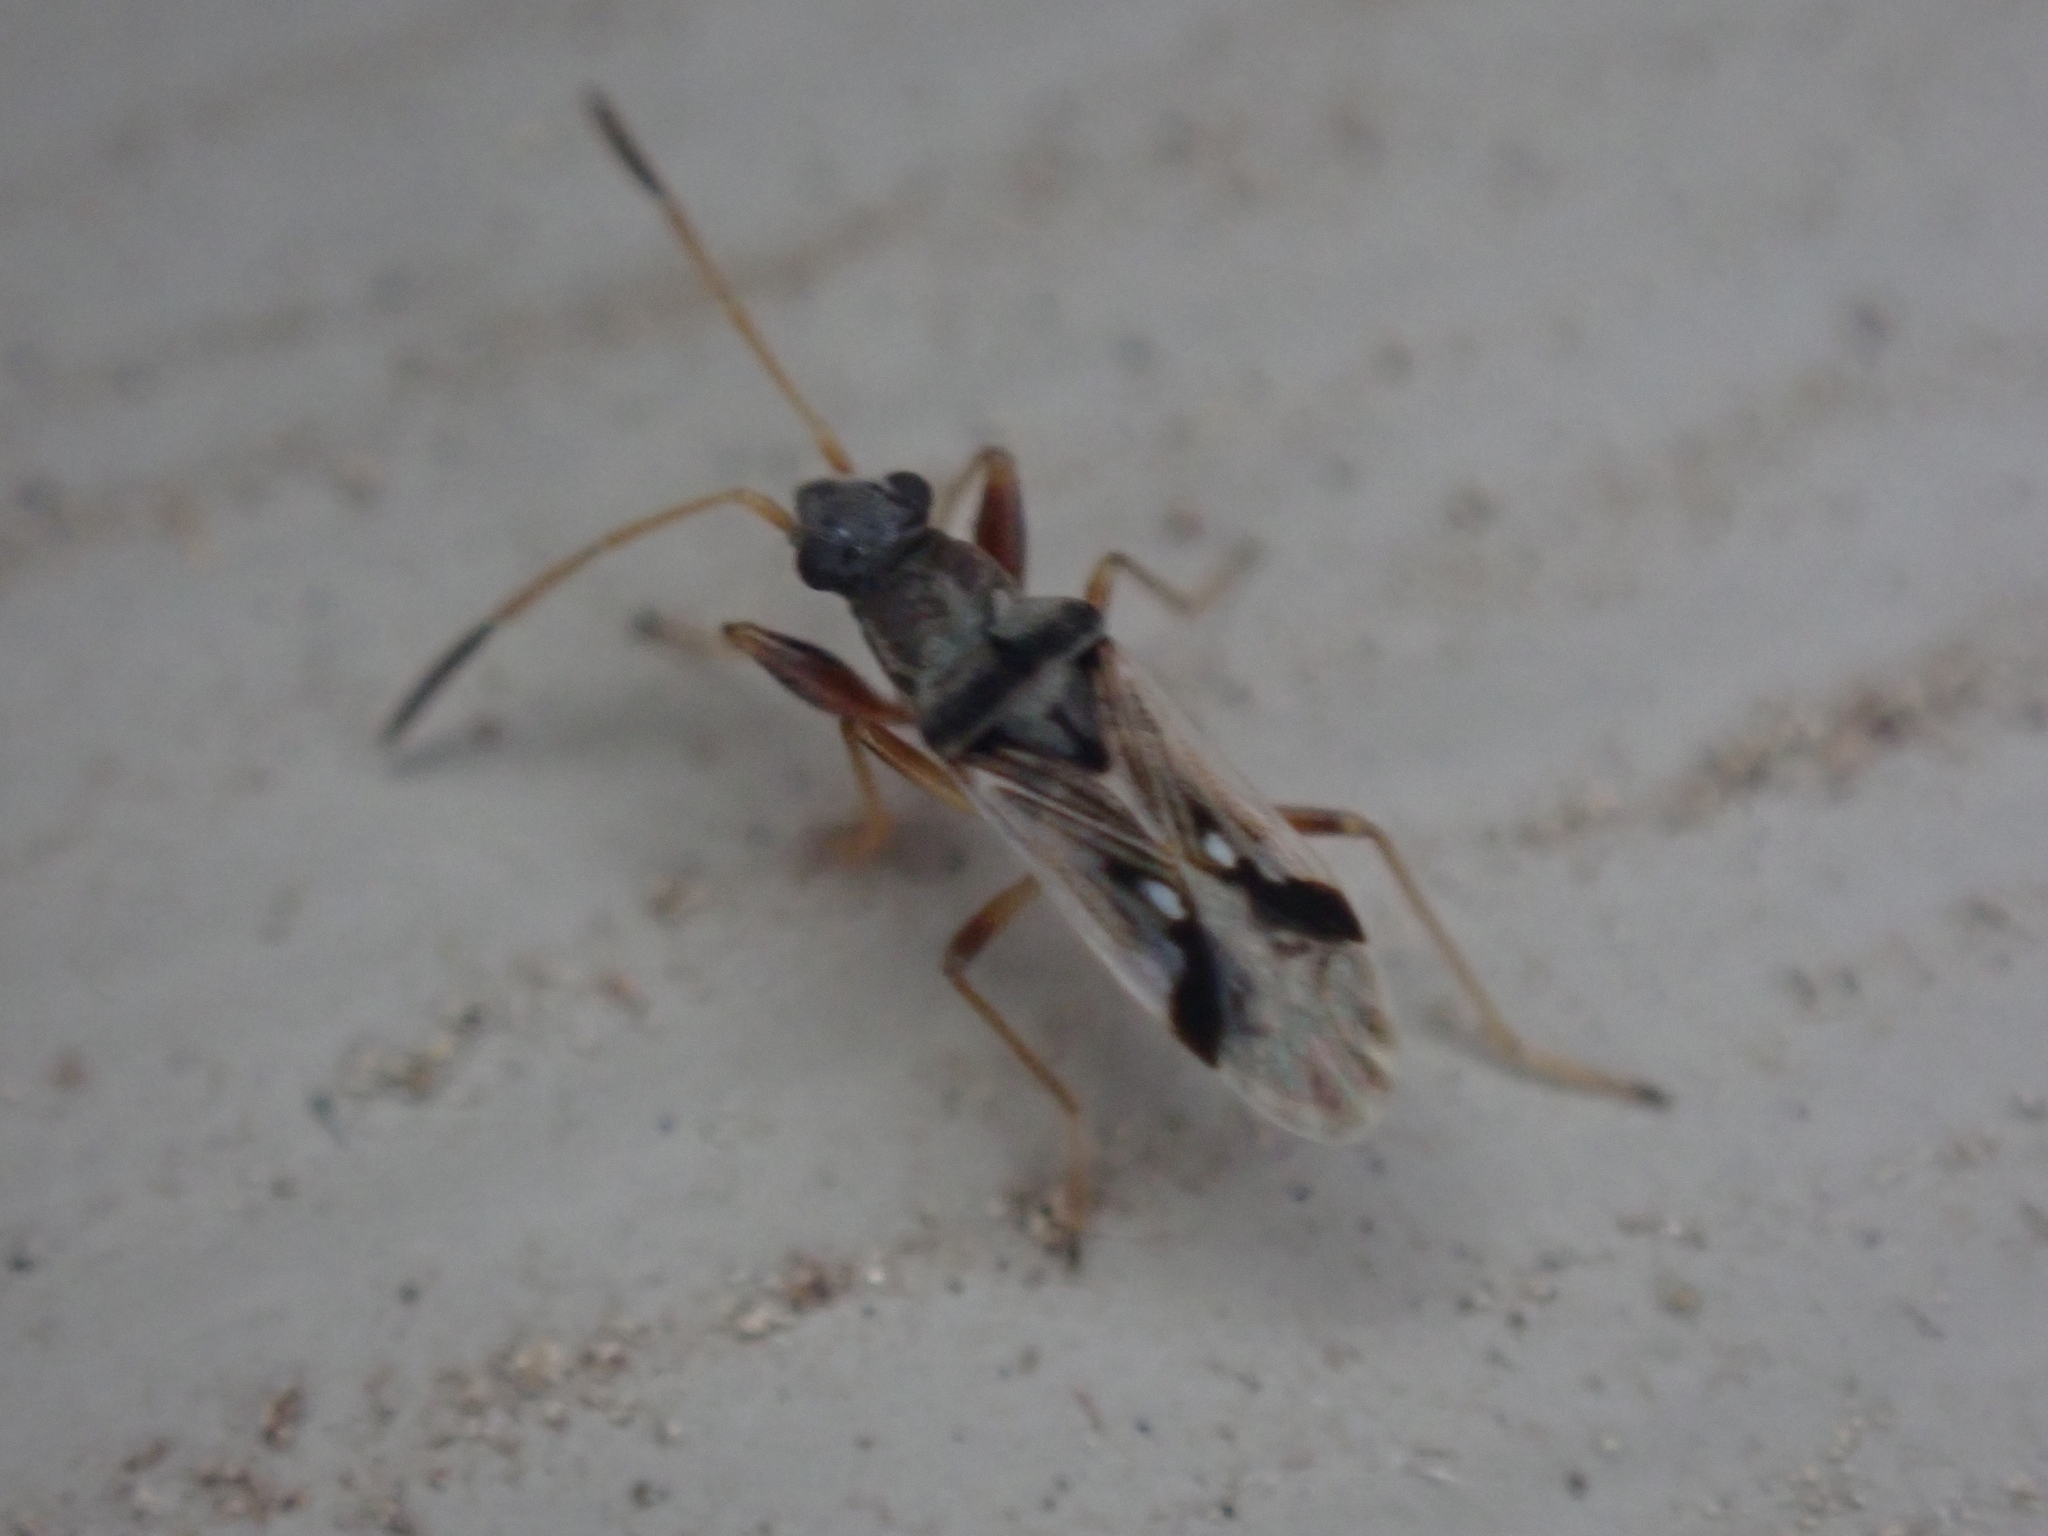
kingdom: Animalia
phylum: Arthropoda
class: Insecta
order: Hemiptera
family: Rhyparochromidae
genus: Pseudopachybrachius
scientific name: Pseudopachybrachius vinctus
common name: Dirt-colored seed bug
